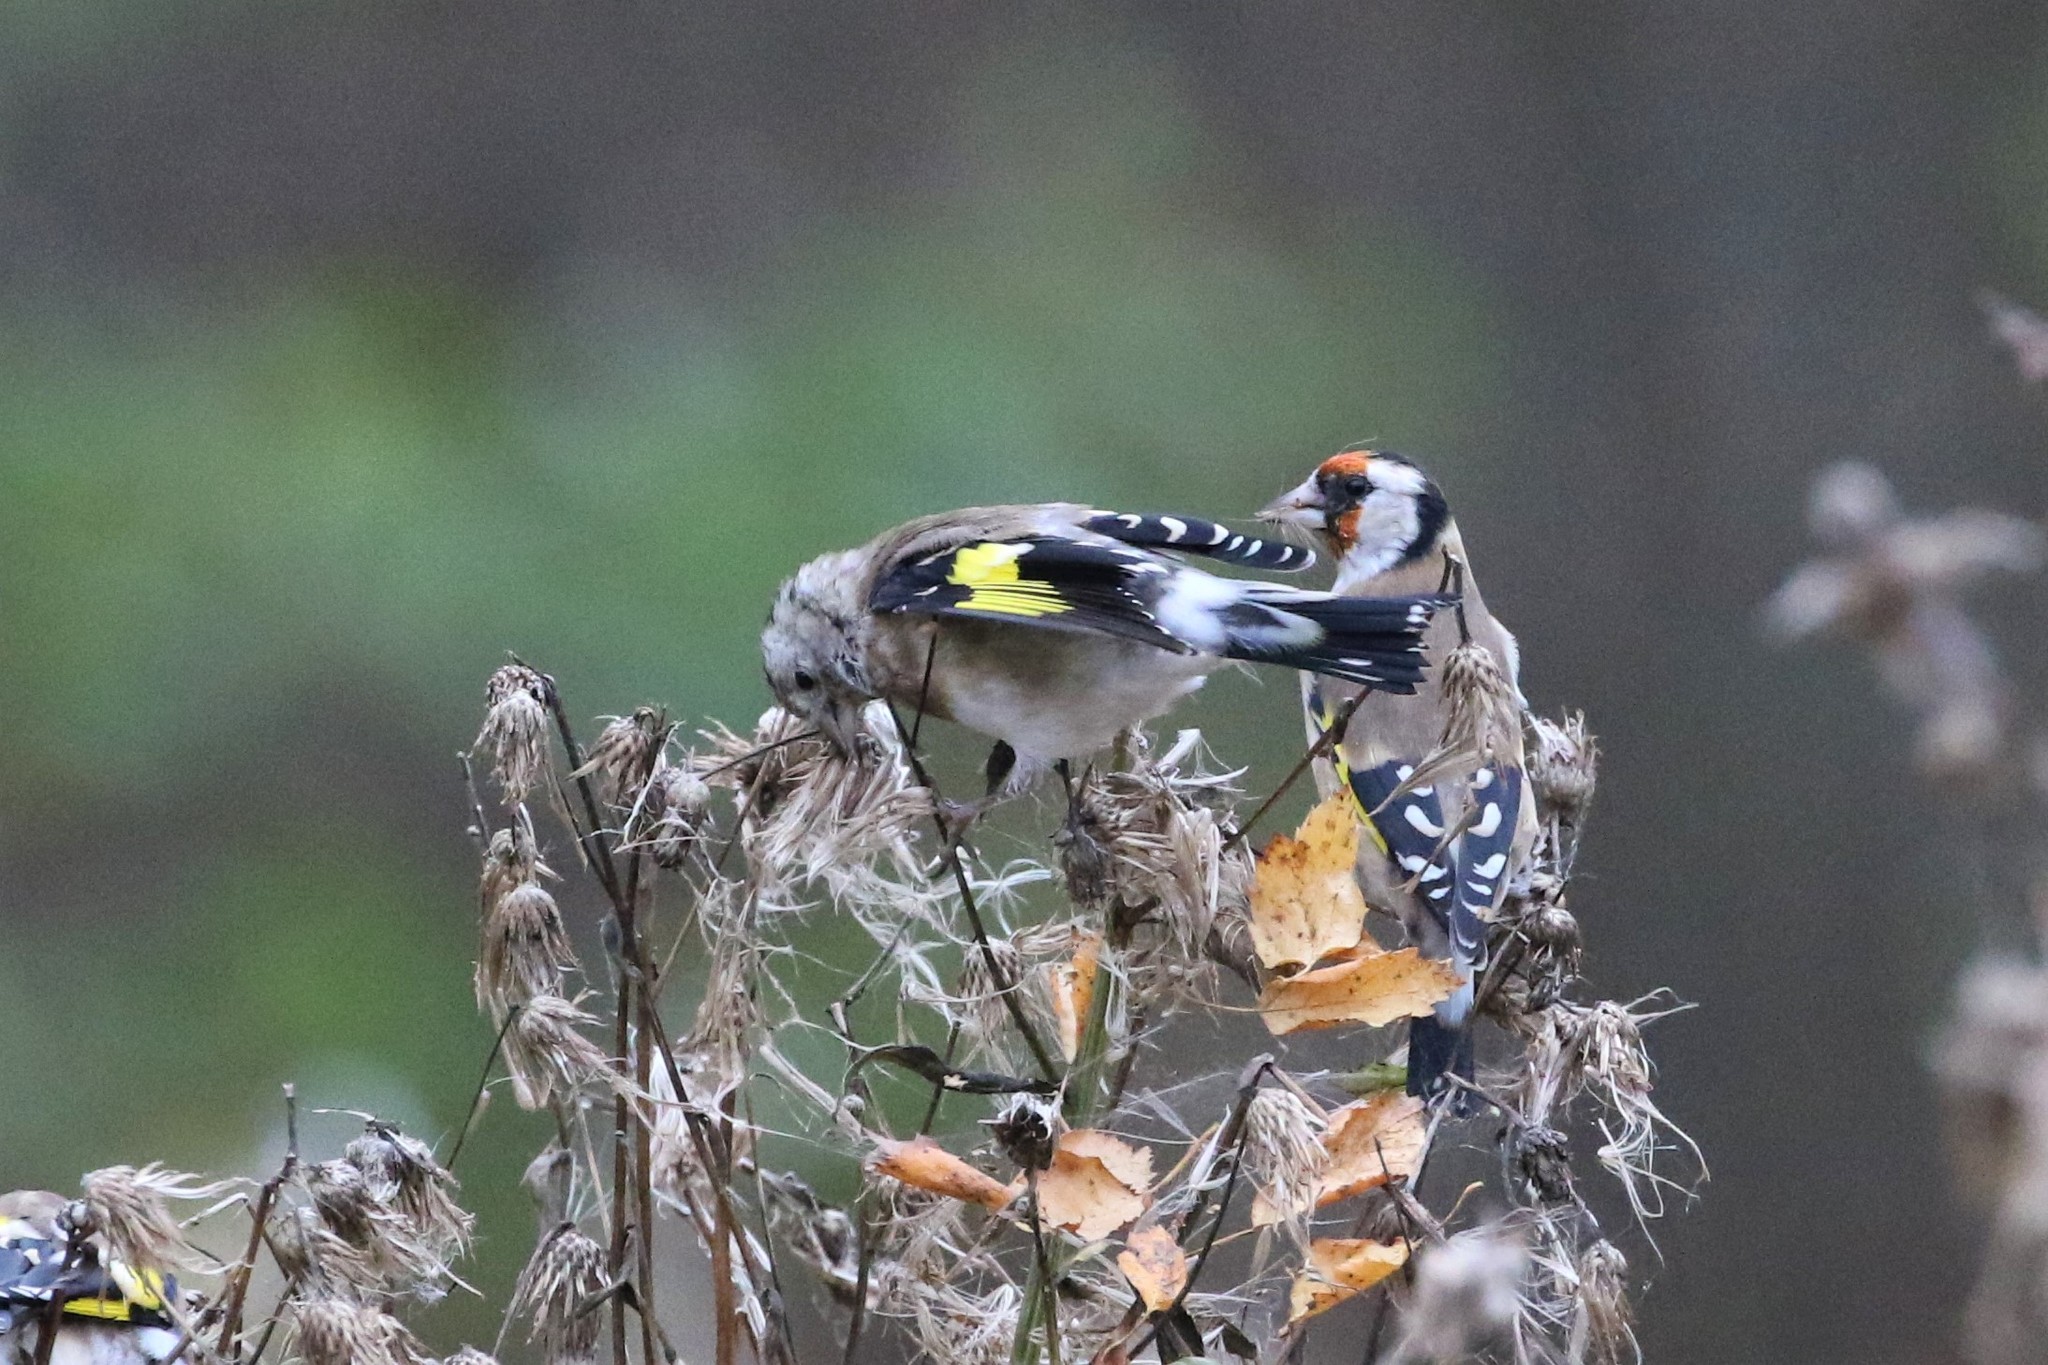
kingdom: Animalia
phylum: Chordata
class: Aves
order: Passeriformes
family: Fringillidae
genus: Carduelis
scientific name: Carduelis carduelis
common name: European goldfinch
